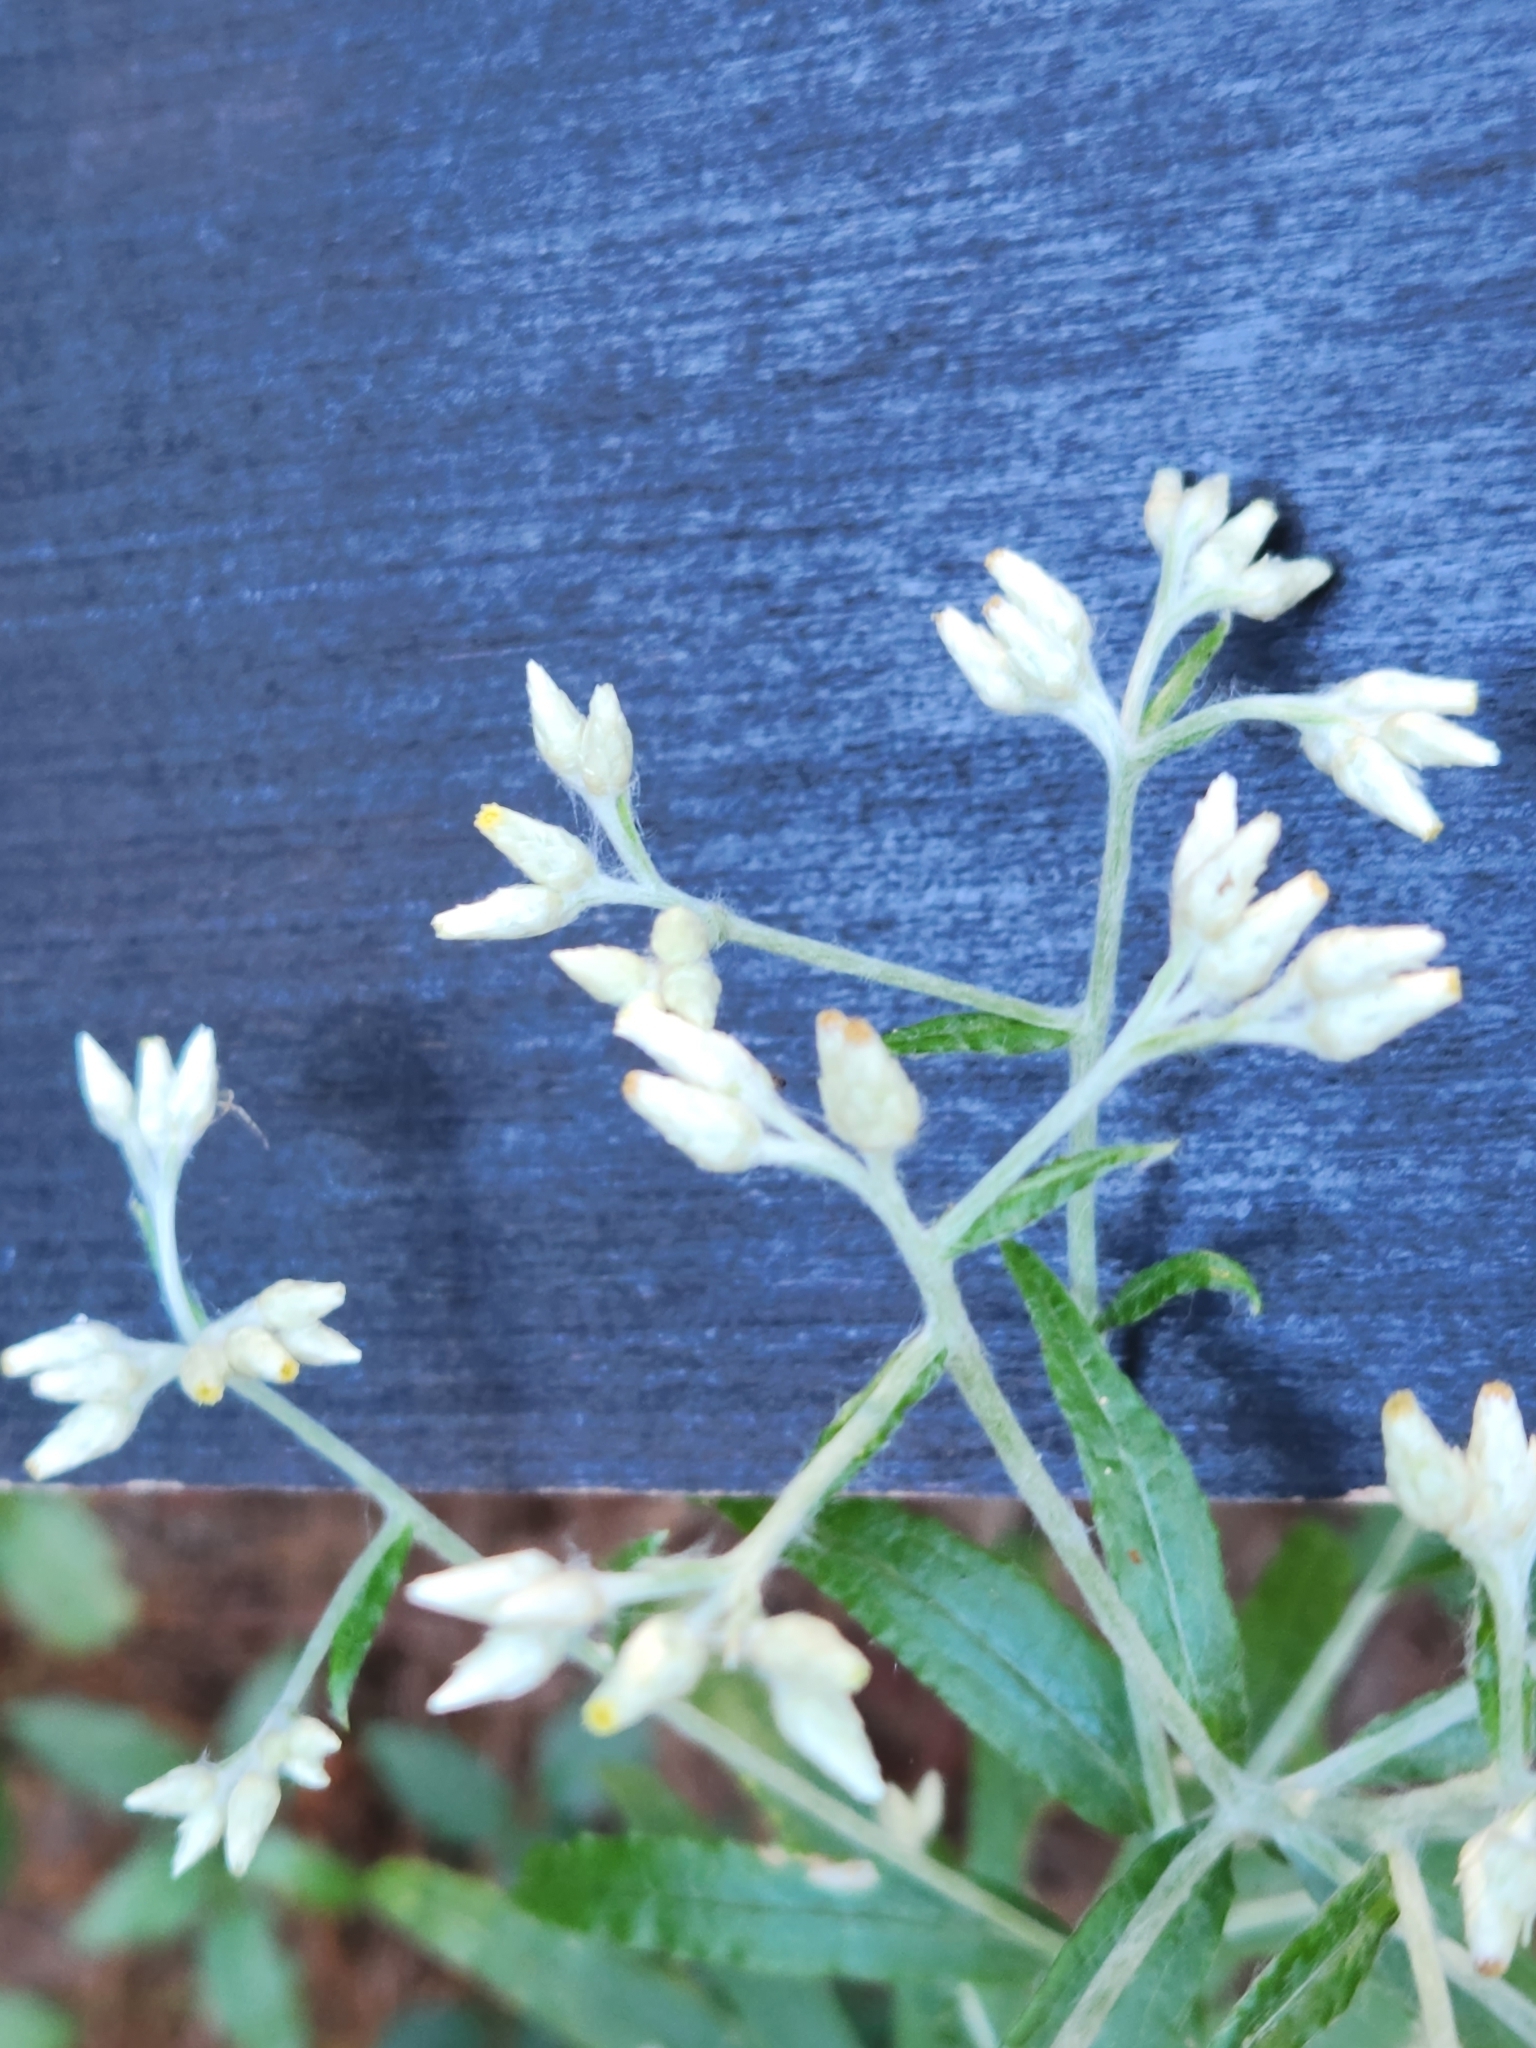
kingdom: Plantae
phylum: Tracheophyta
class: Magnoliopsida
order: Asterales
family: Asteraceae
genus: Pseudognaphalium
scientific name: Pseudognaphalium obtusifolium
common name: Eastern rabbit-tobacco
